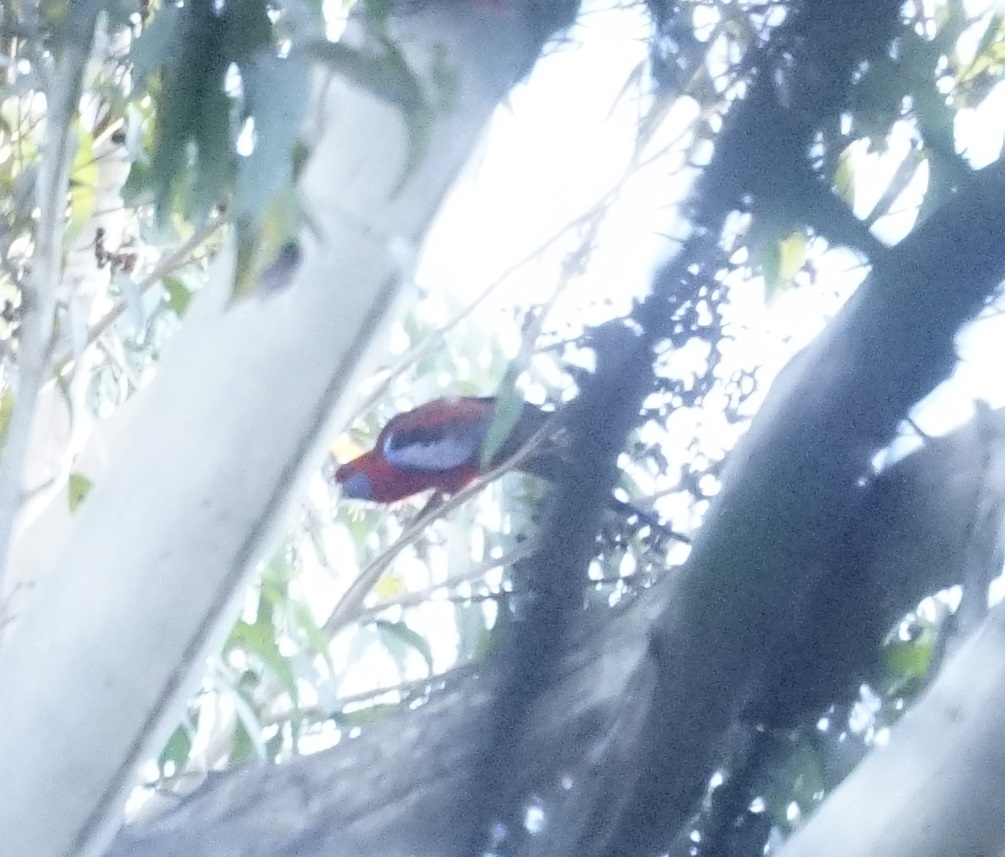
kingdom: Animalia
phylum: Chordata
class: Aves
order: Psittaciformes
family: Psittacidae
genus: Platycercus
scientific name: Platycercus elegans
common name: Crimson rosella
